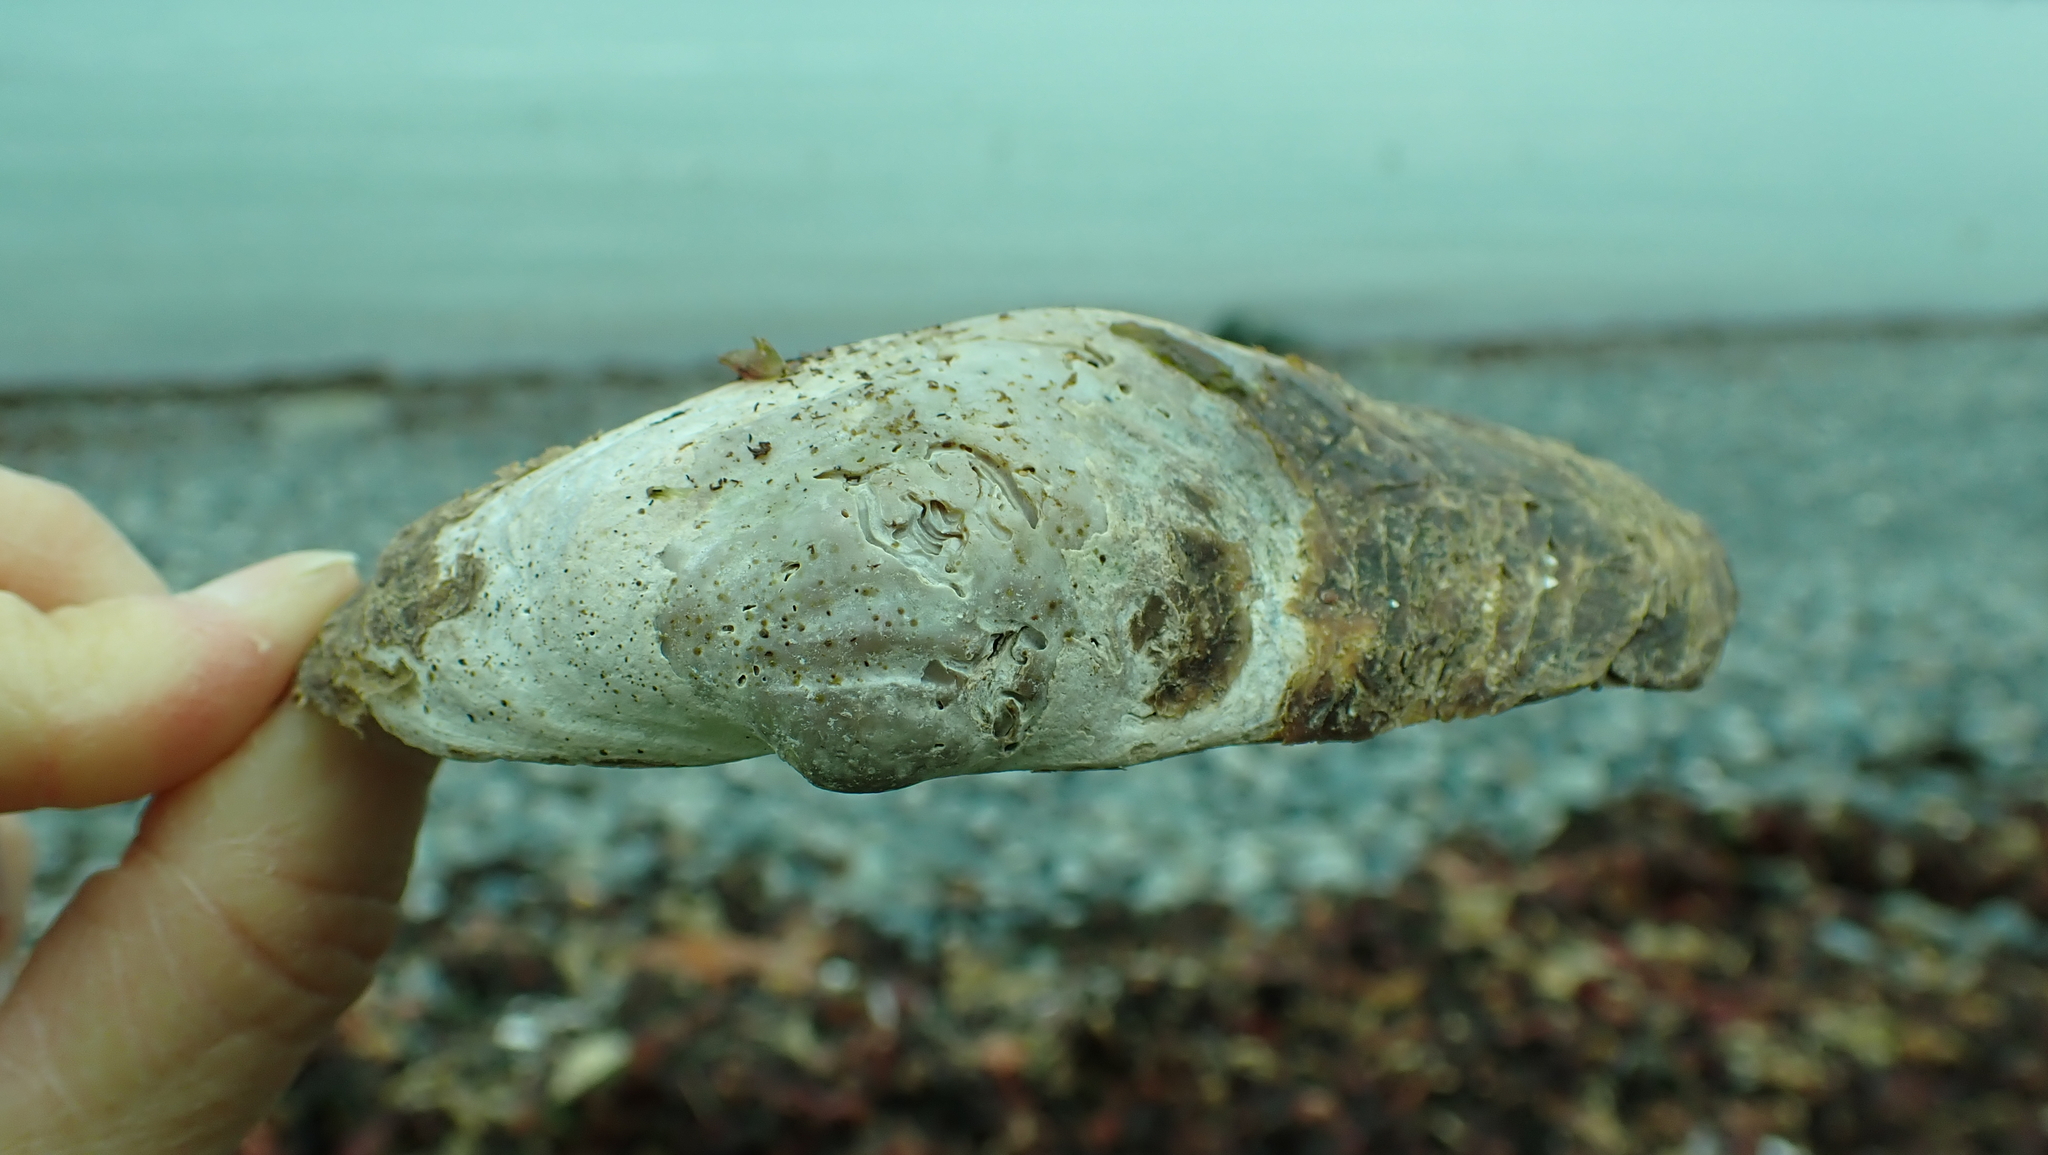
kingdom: Animalia
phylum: Mollusca
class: Bivalvia
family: Lyonsiidae
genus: Entodesma
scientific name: Entodesma navicula
